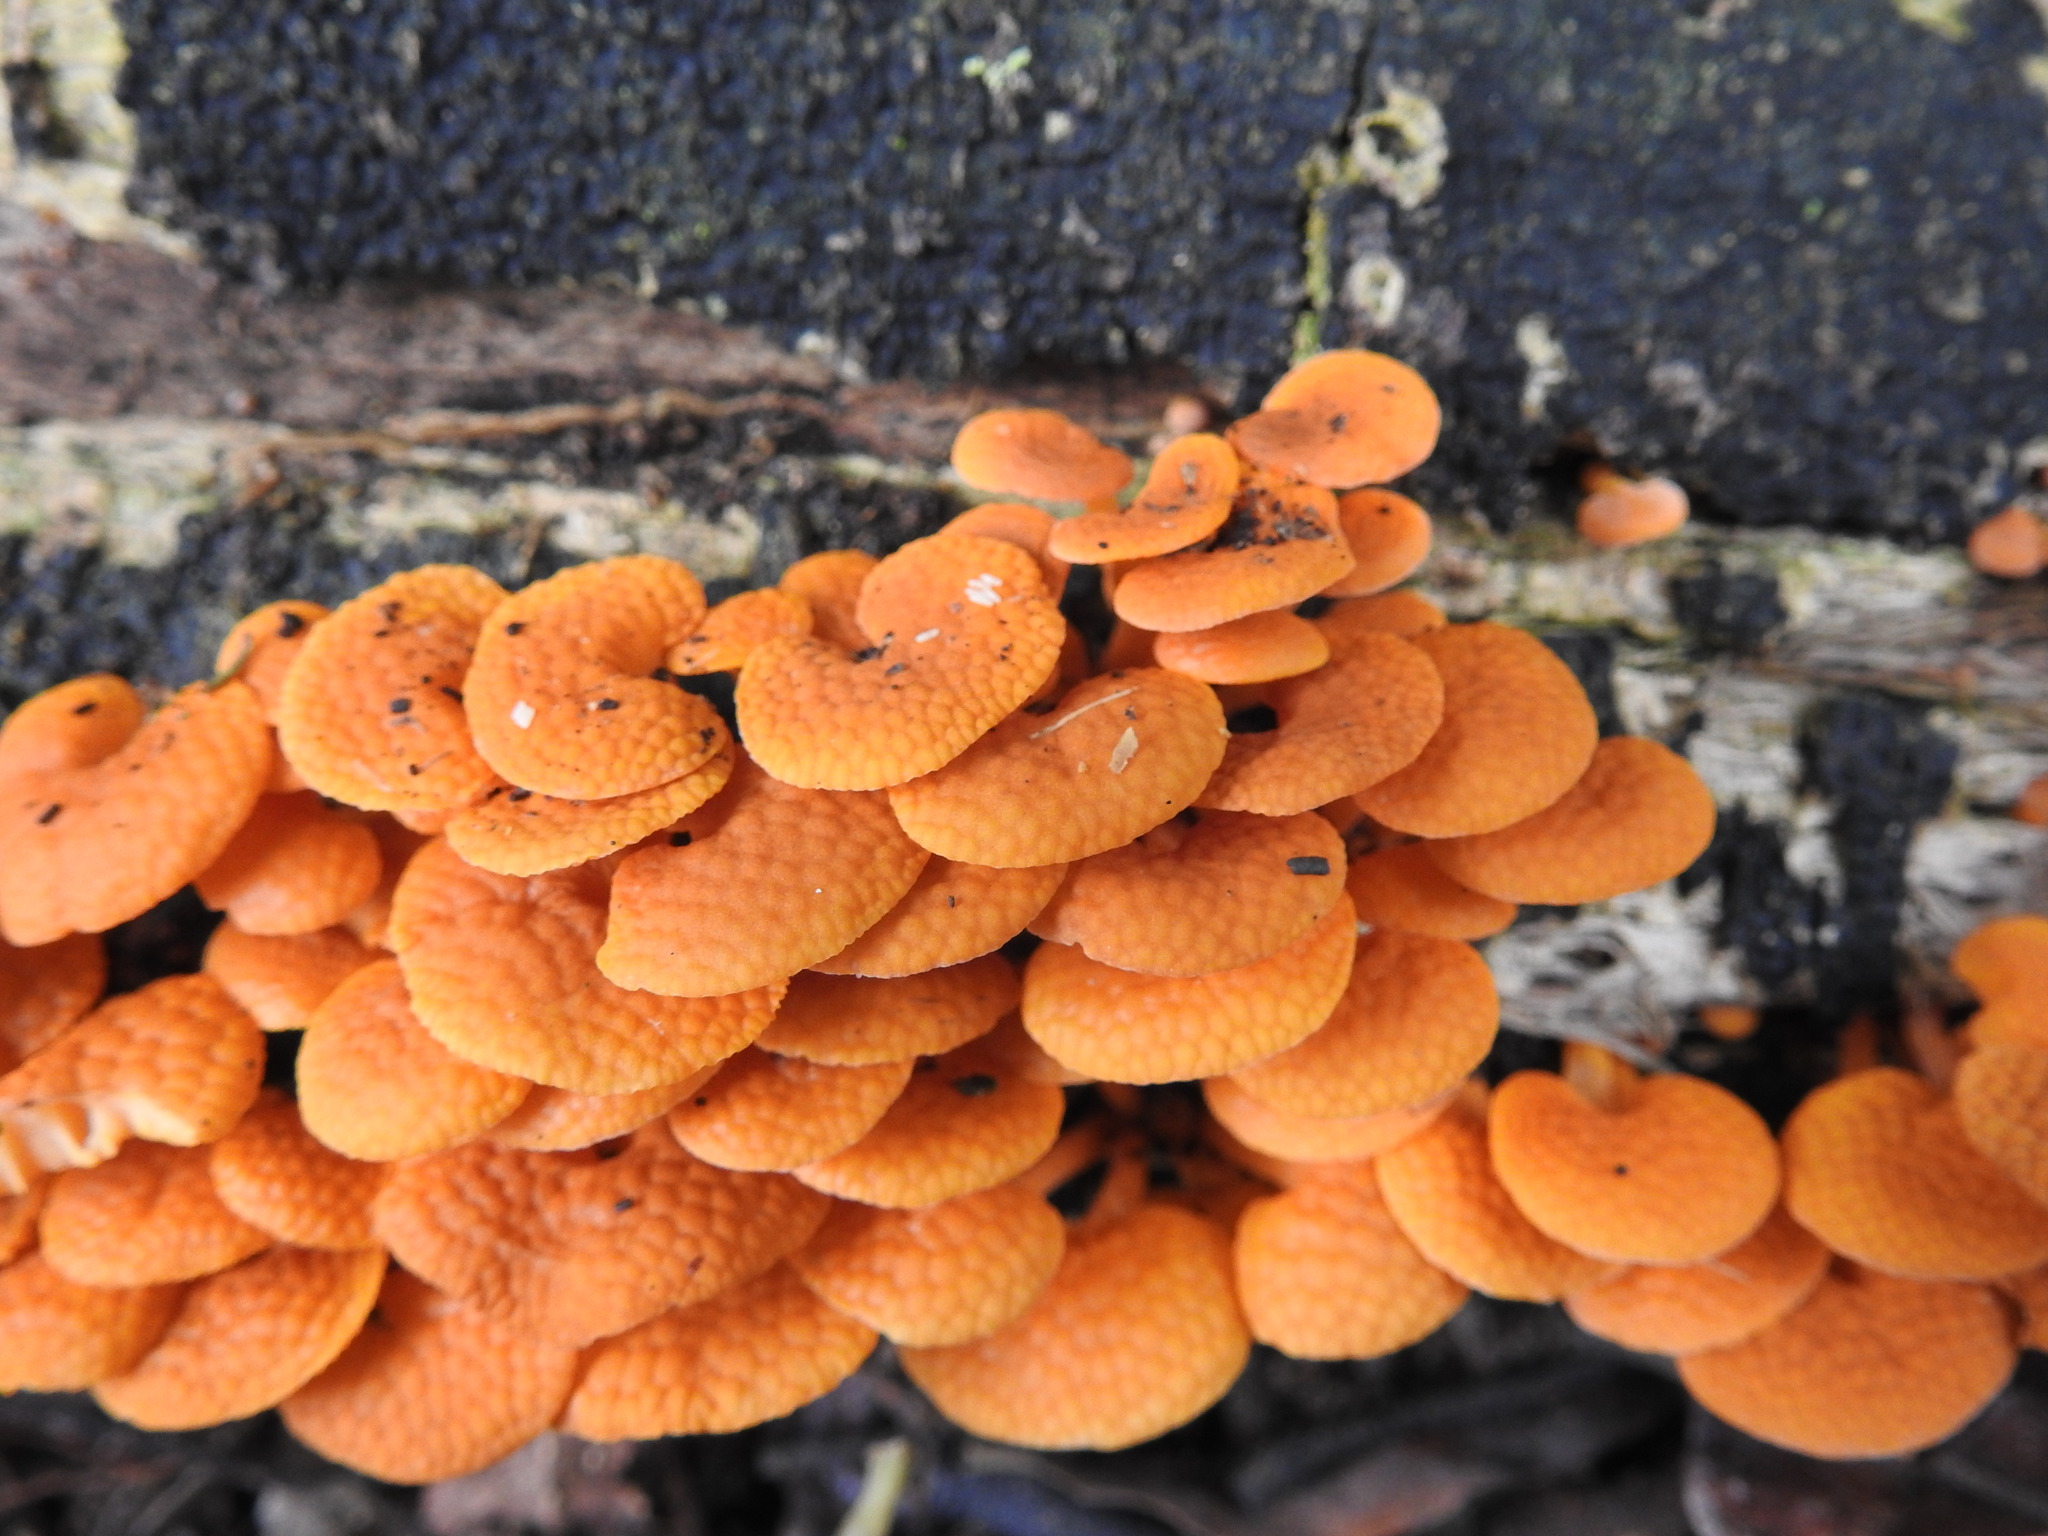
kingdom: Fungi
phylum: Basidiomycota
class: Agaricomycetes
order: Agaricales
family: Mycenaceae
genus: Favolaschia
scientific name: Favolaschia claudopus
